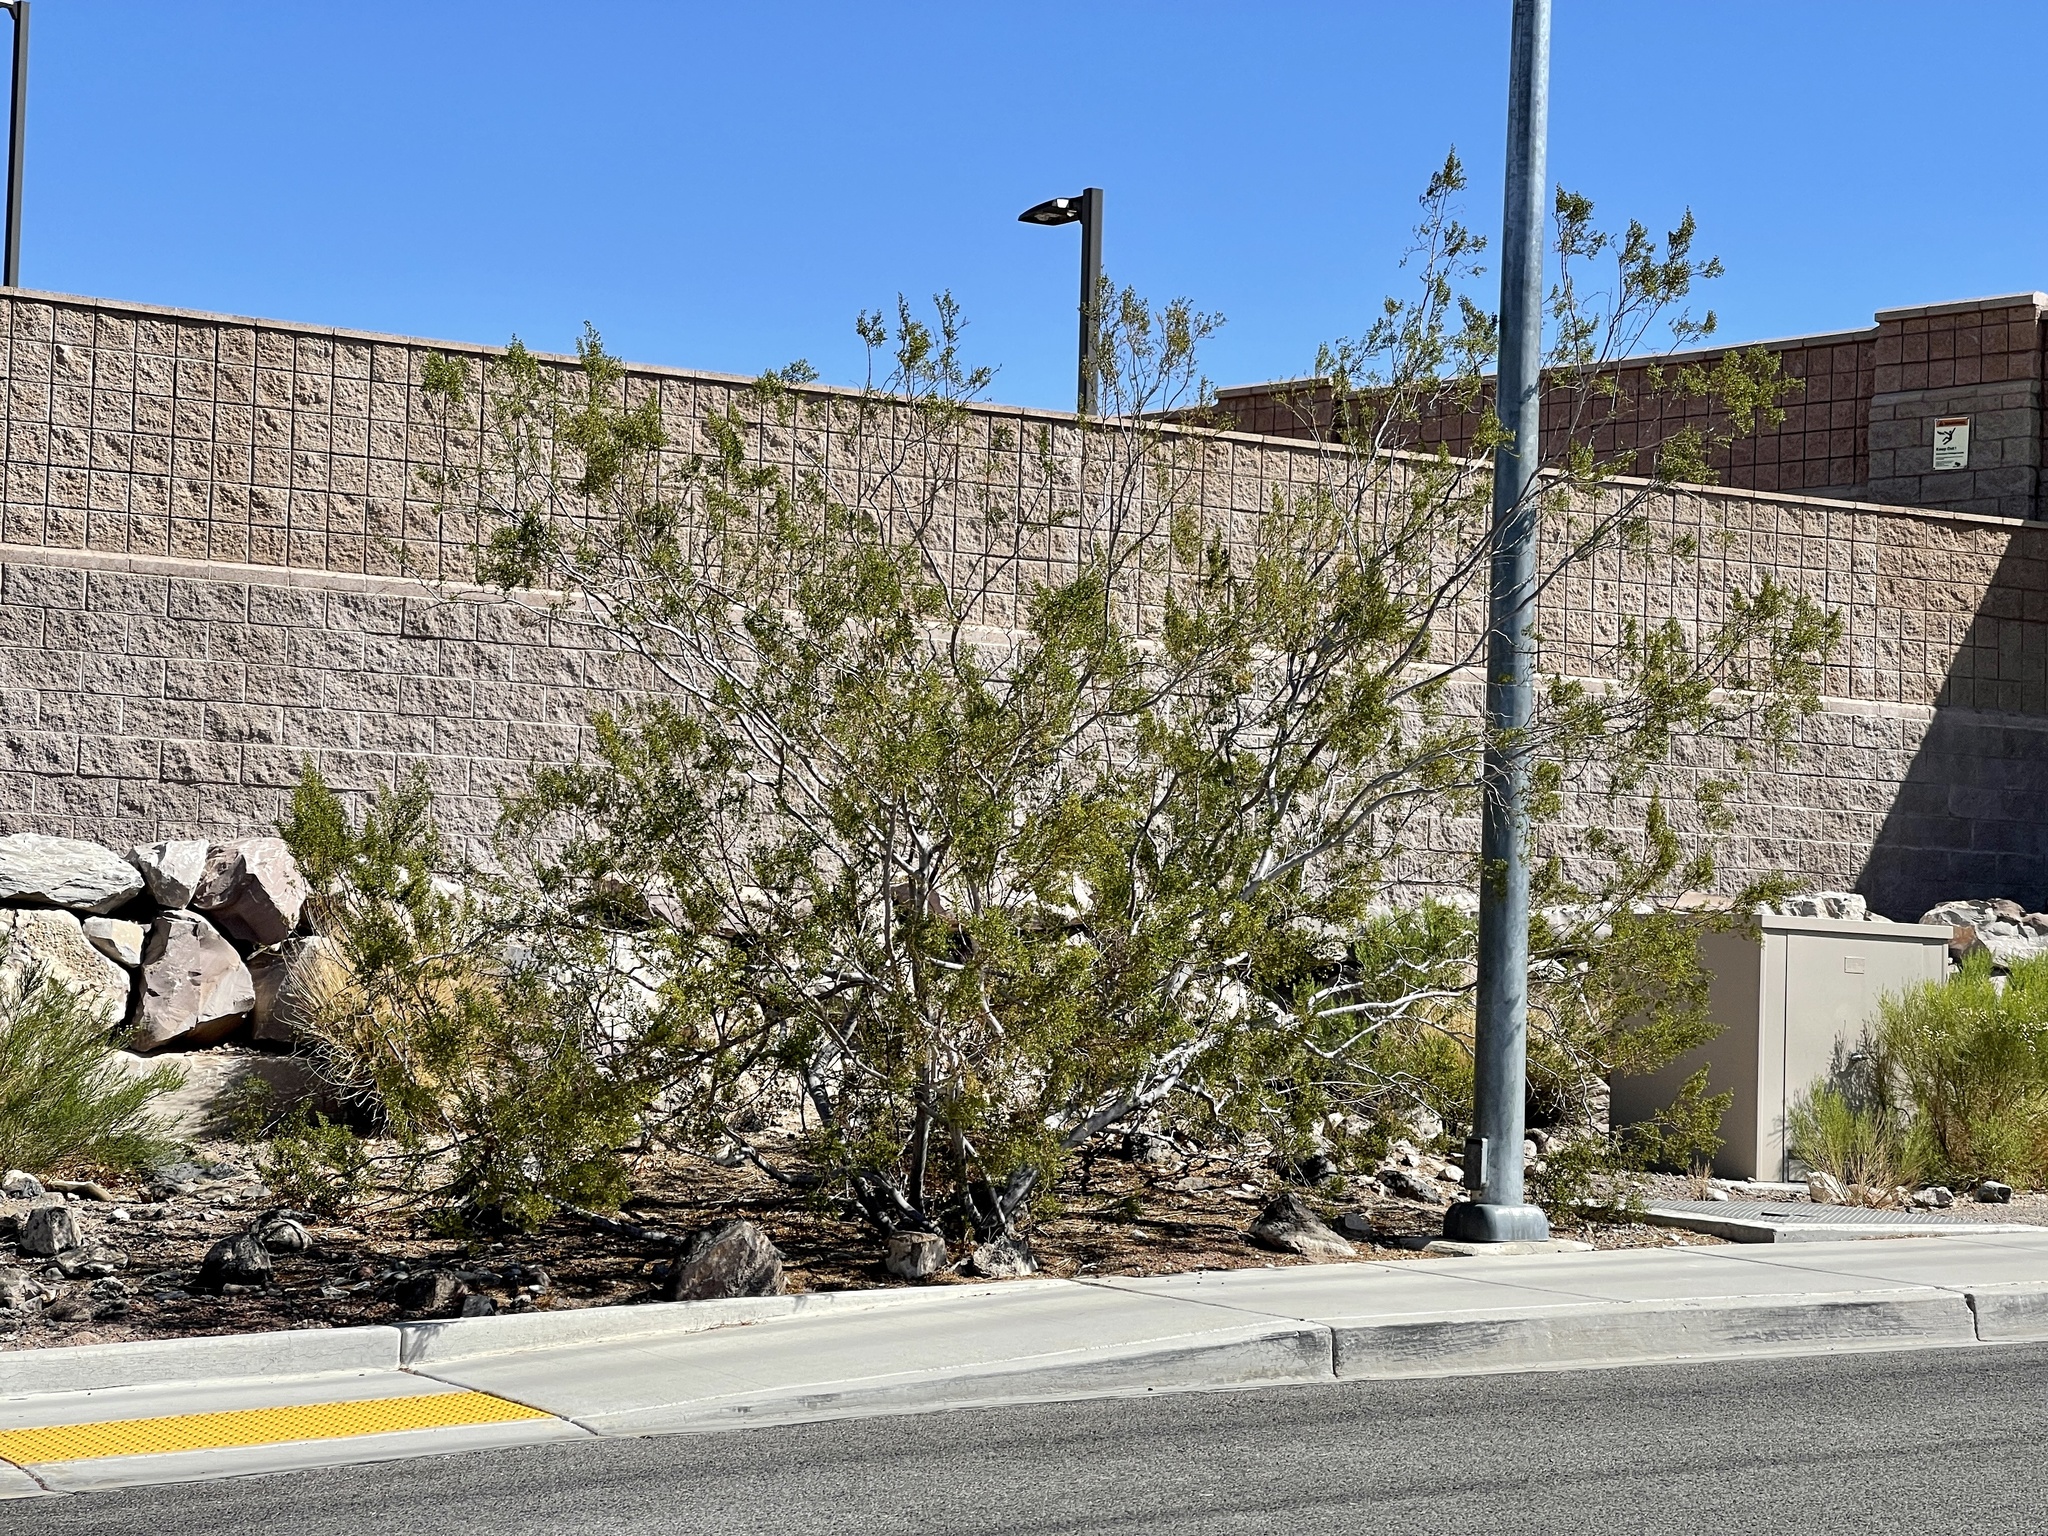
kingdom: Plantae
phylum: Tracheophyta
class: Magnoliopsida
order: Zygophyllales
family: Zygophyllaceae
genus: Larrea
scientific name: Larrea tridentata
